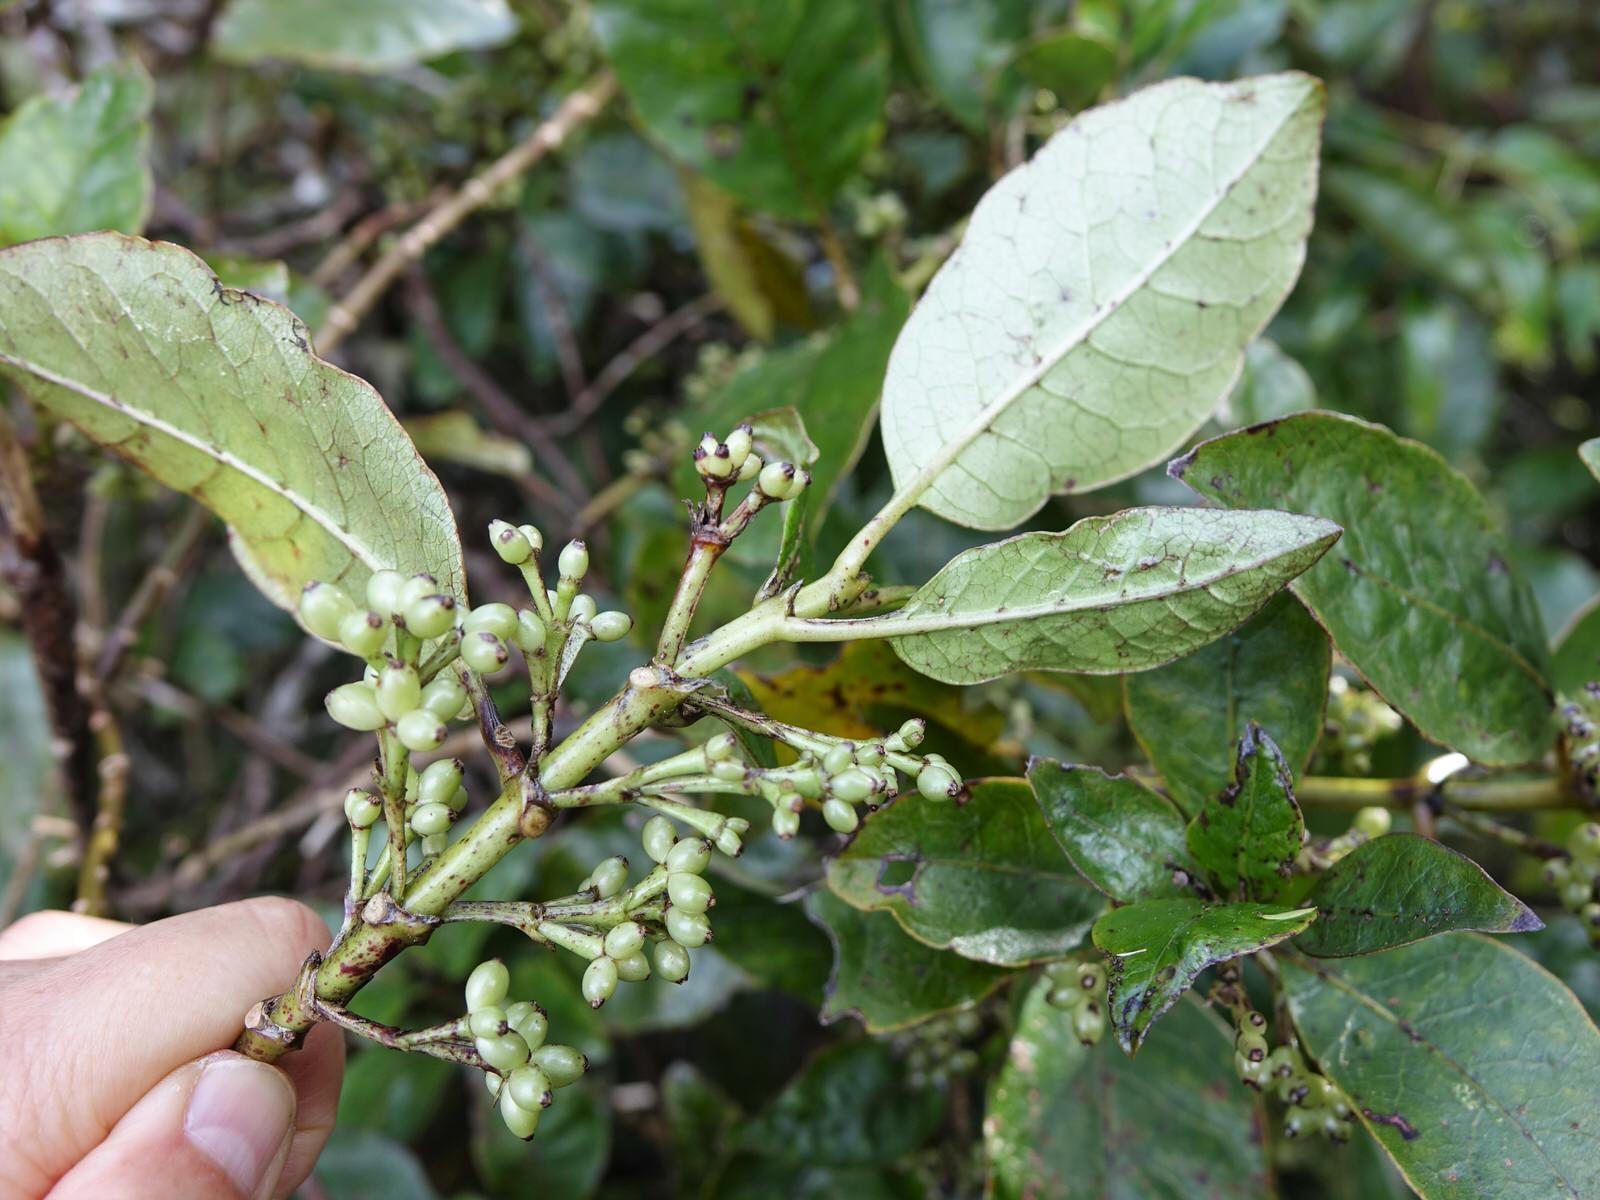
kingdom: Plantae
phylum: Tracheophyta
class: Magnoliopsida
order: Gentianales
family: Rubiaceae
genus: Coprosma
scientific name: Coprosma autumnalis
